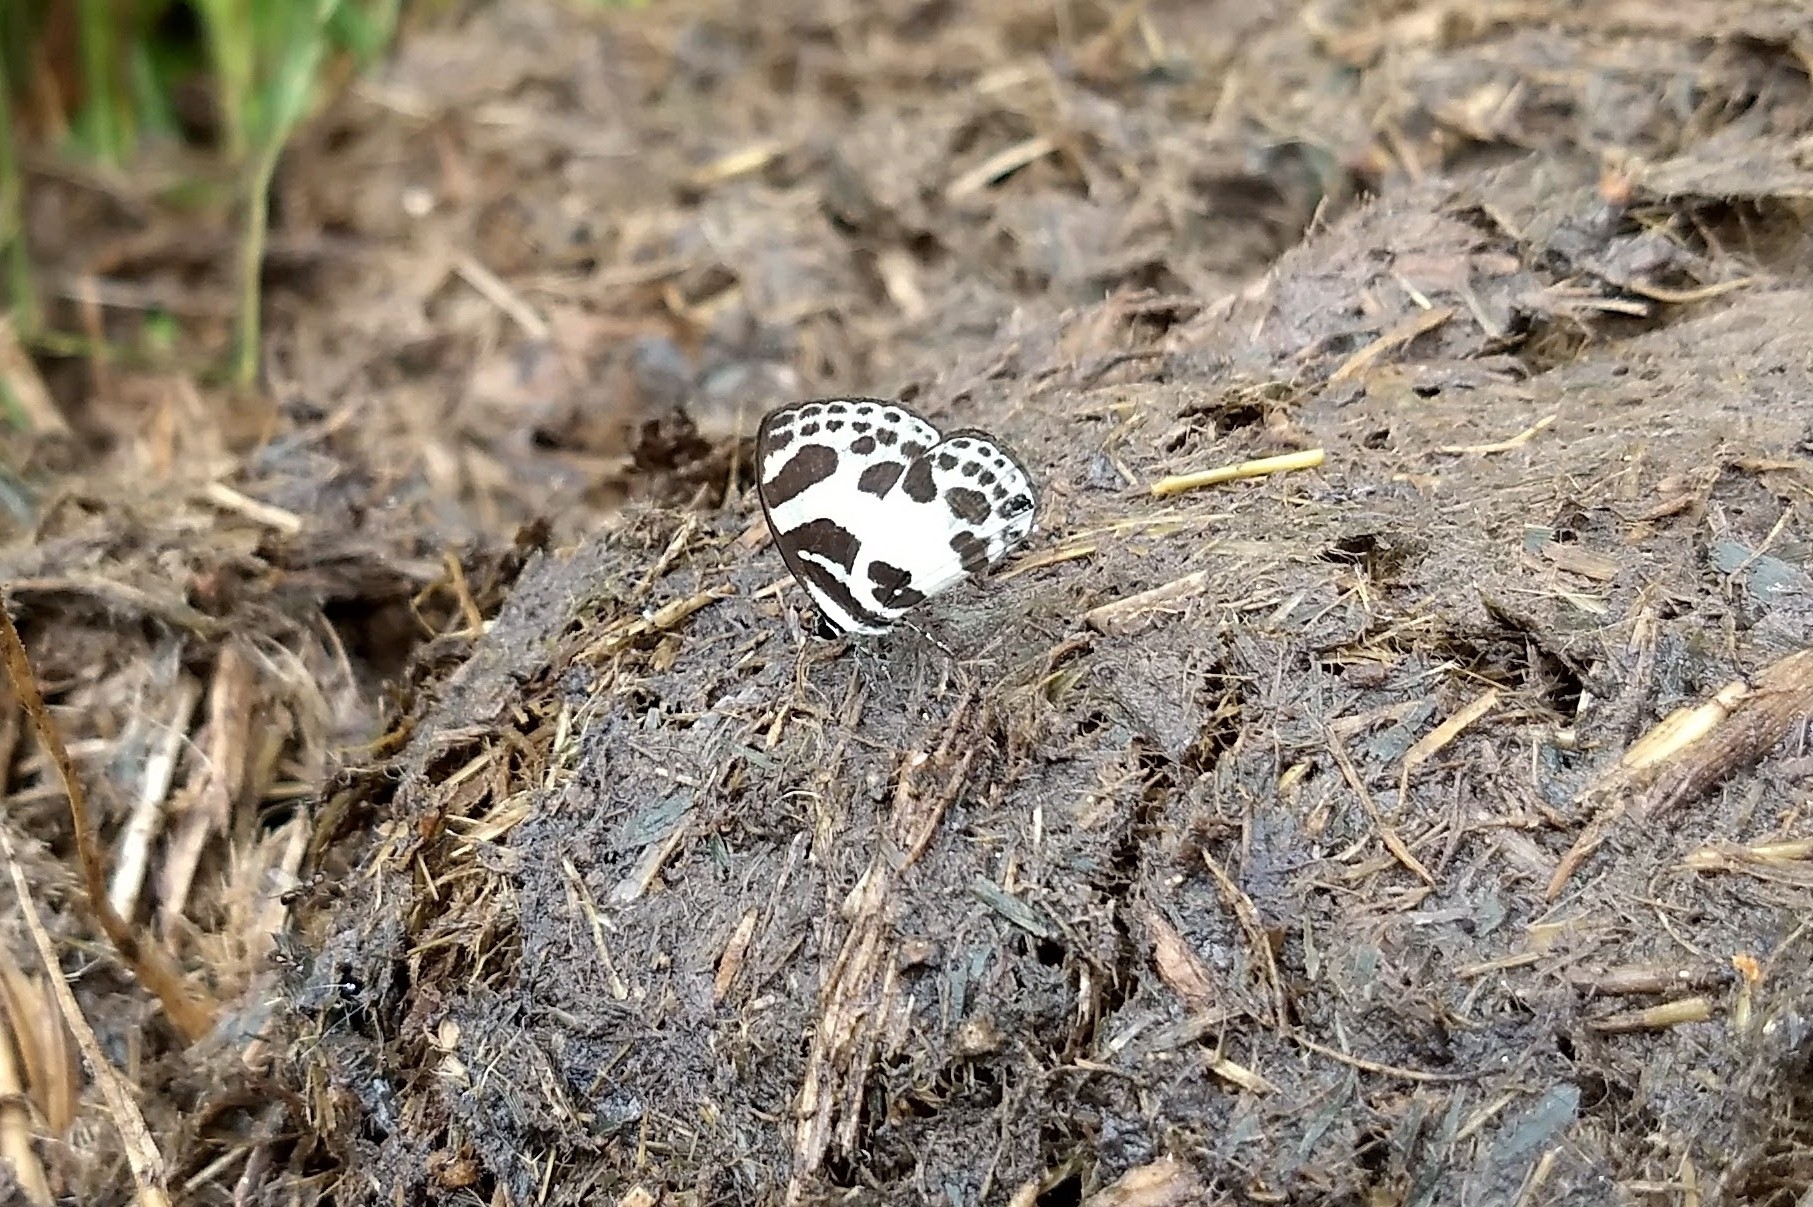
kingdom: Animalia
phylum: Arthropoda
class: Insecta
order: Lepidoptera
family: Lycaenidae
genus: Discolampa
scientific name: Discolampa ethion
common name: Banded blue pierrot
